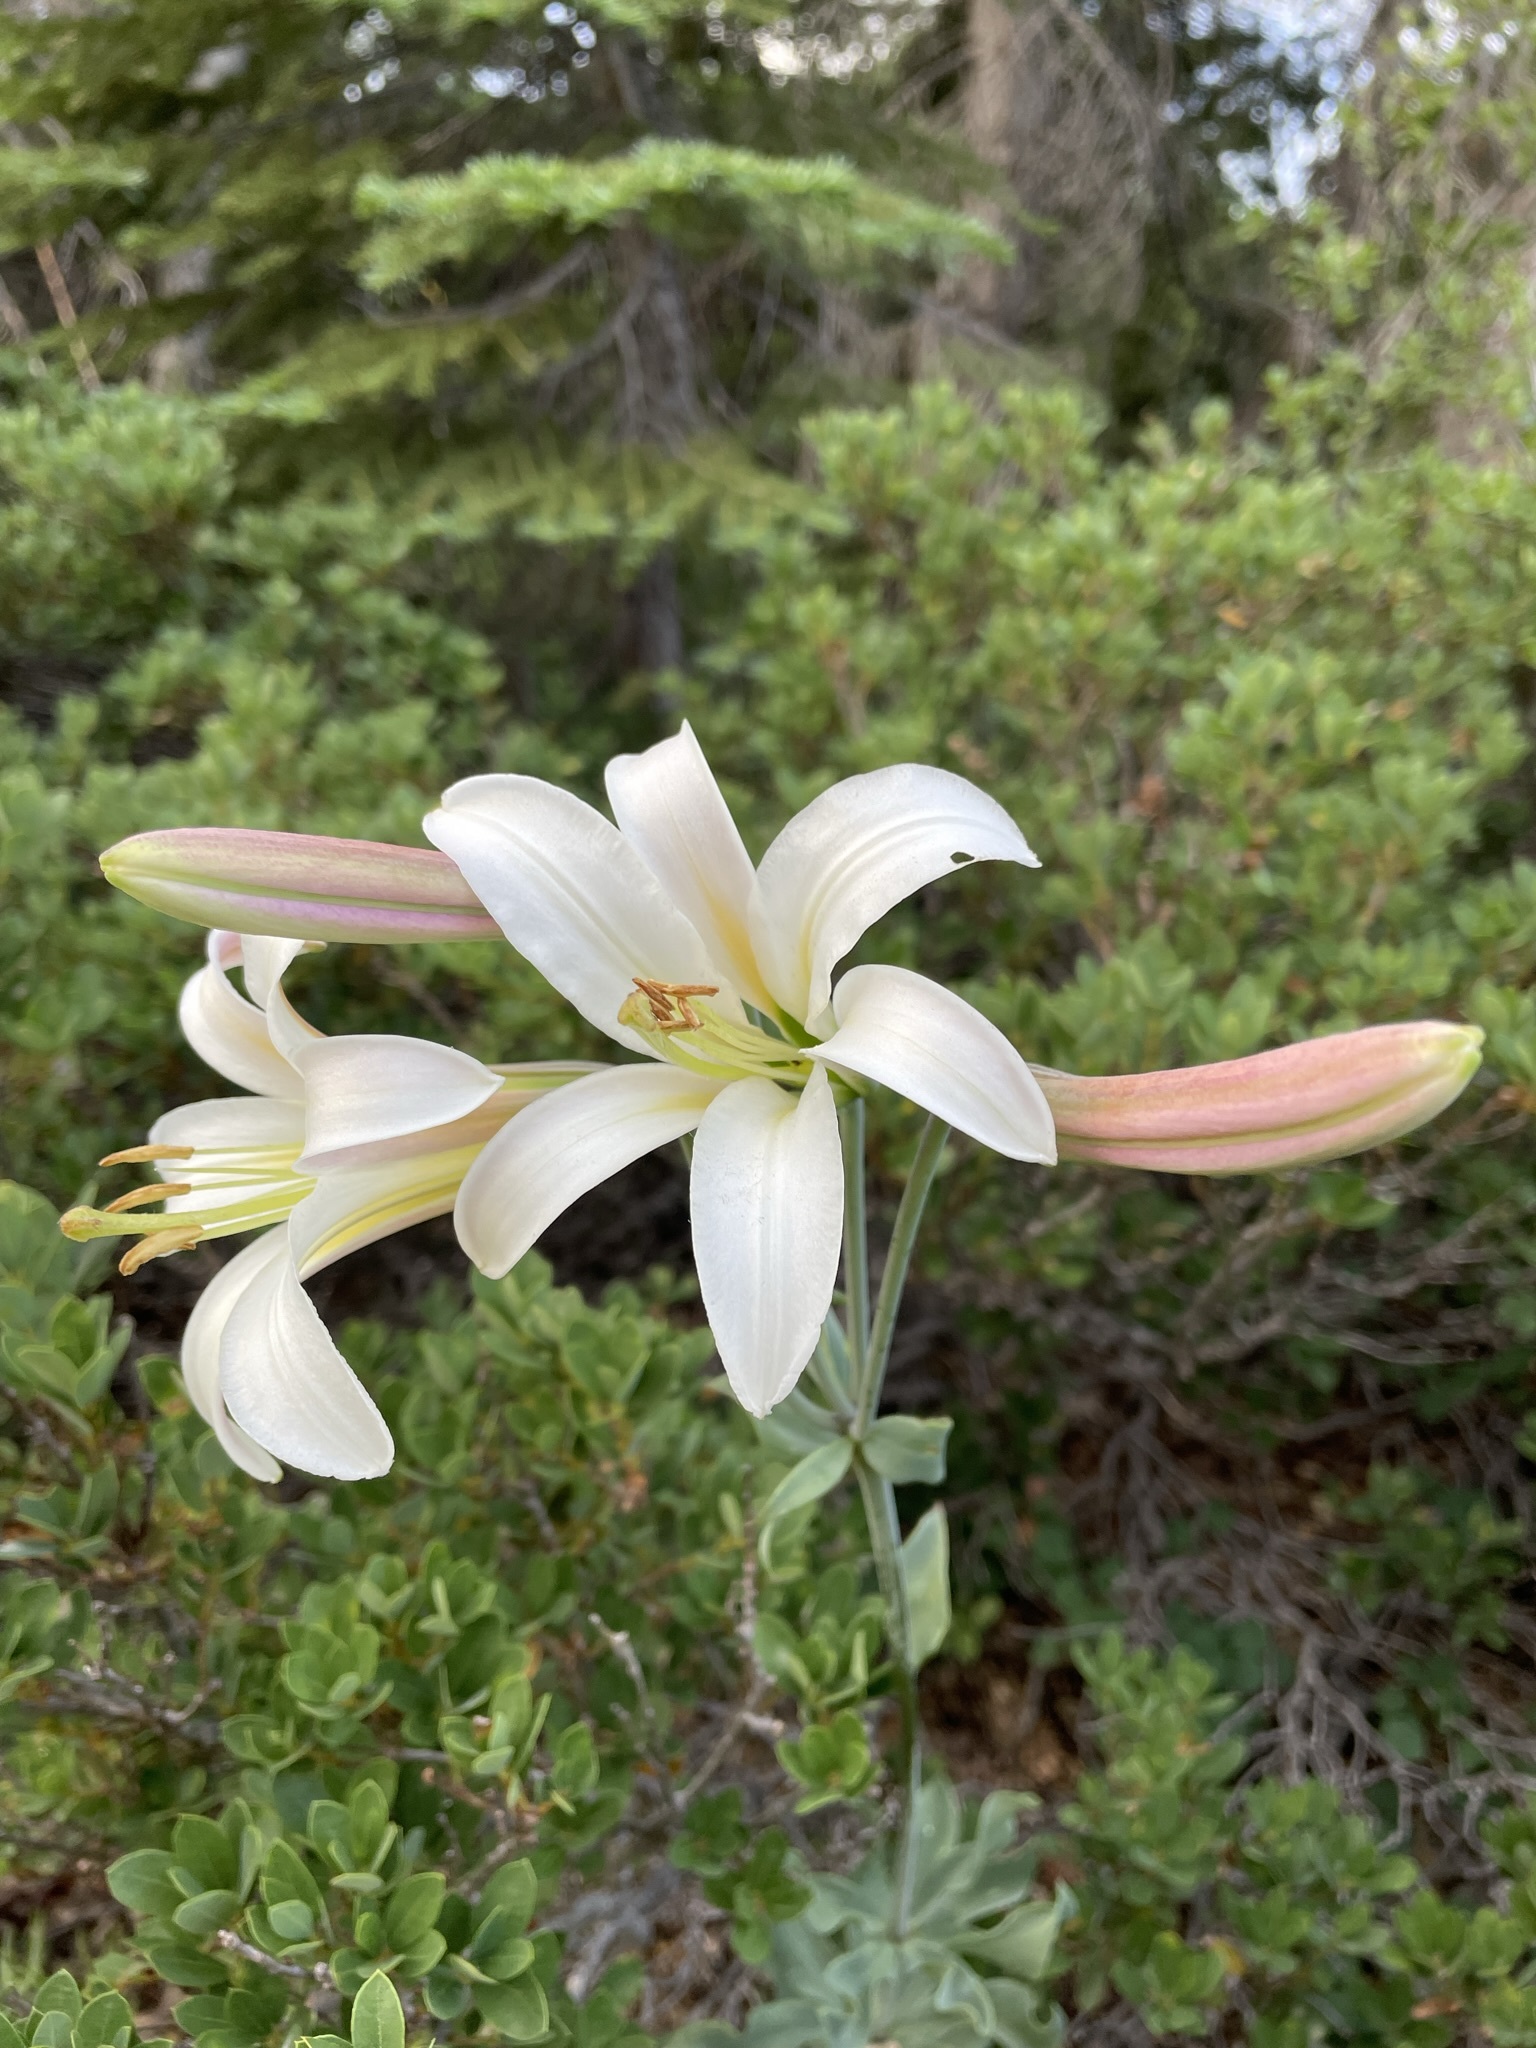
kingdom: Plantae
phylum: Tracheophyta
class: Liliopsida
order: Liliales
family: Liliaceae
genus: Lilium
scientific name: Lilium washingtonianum
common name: Washington lily
